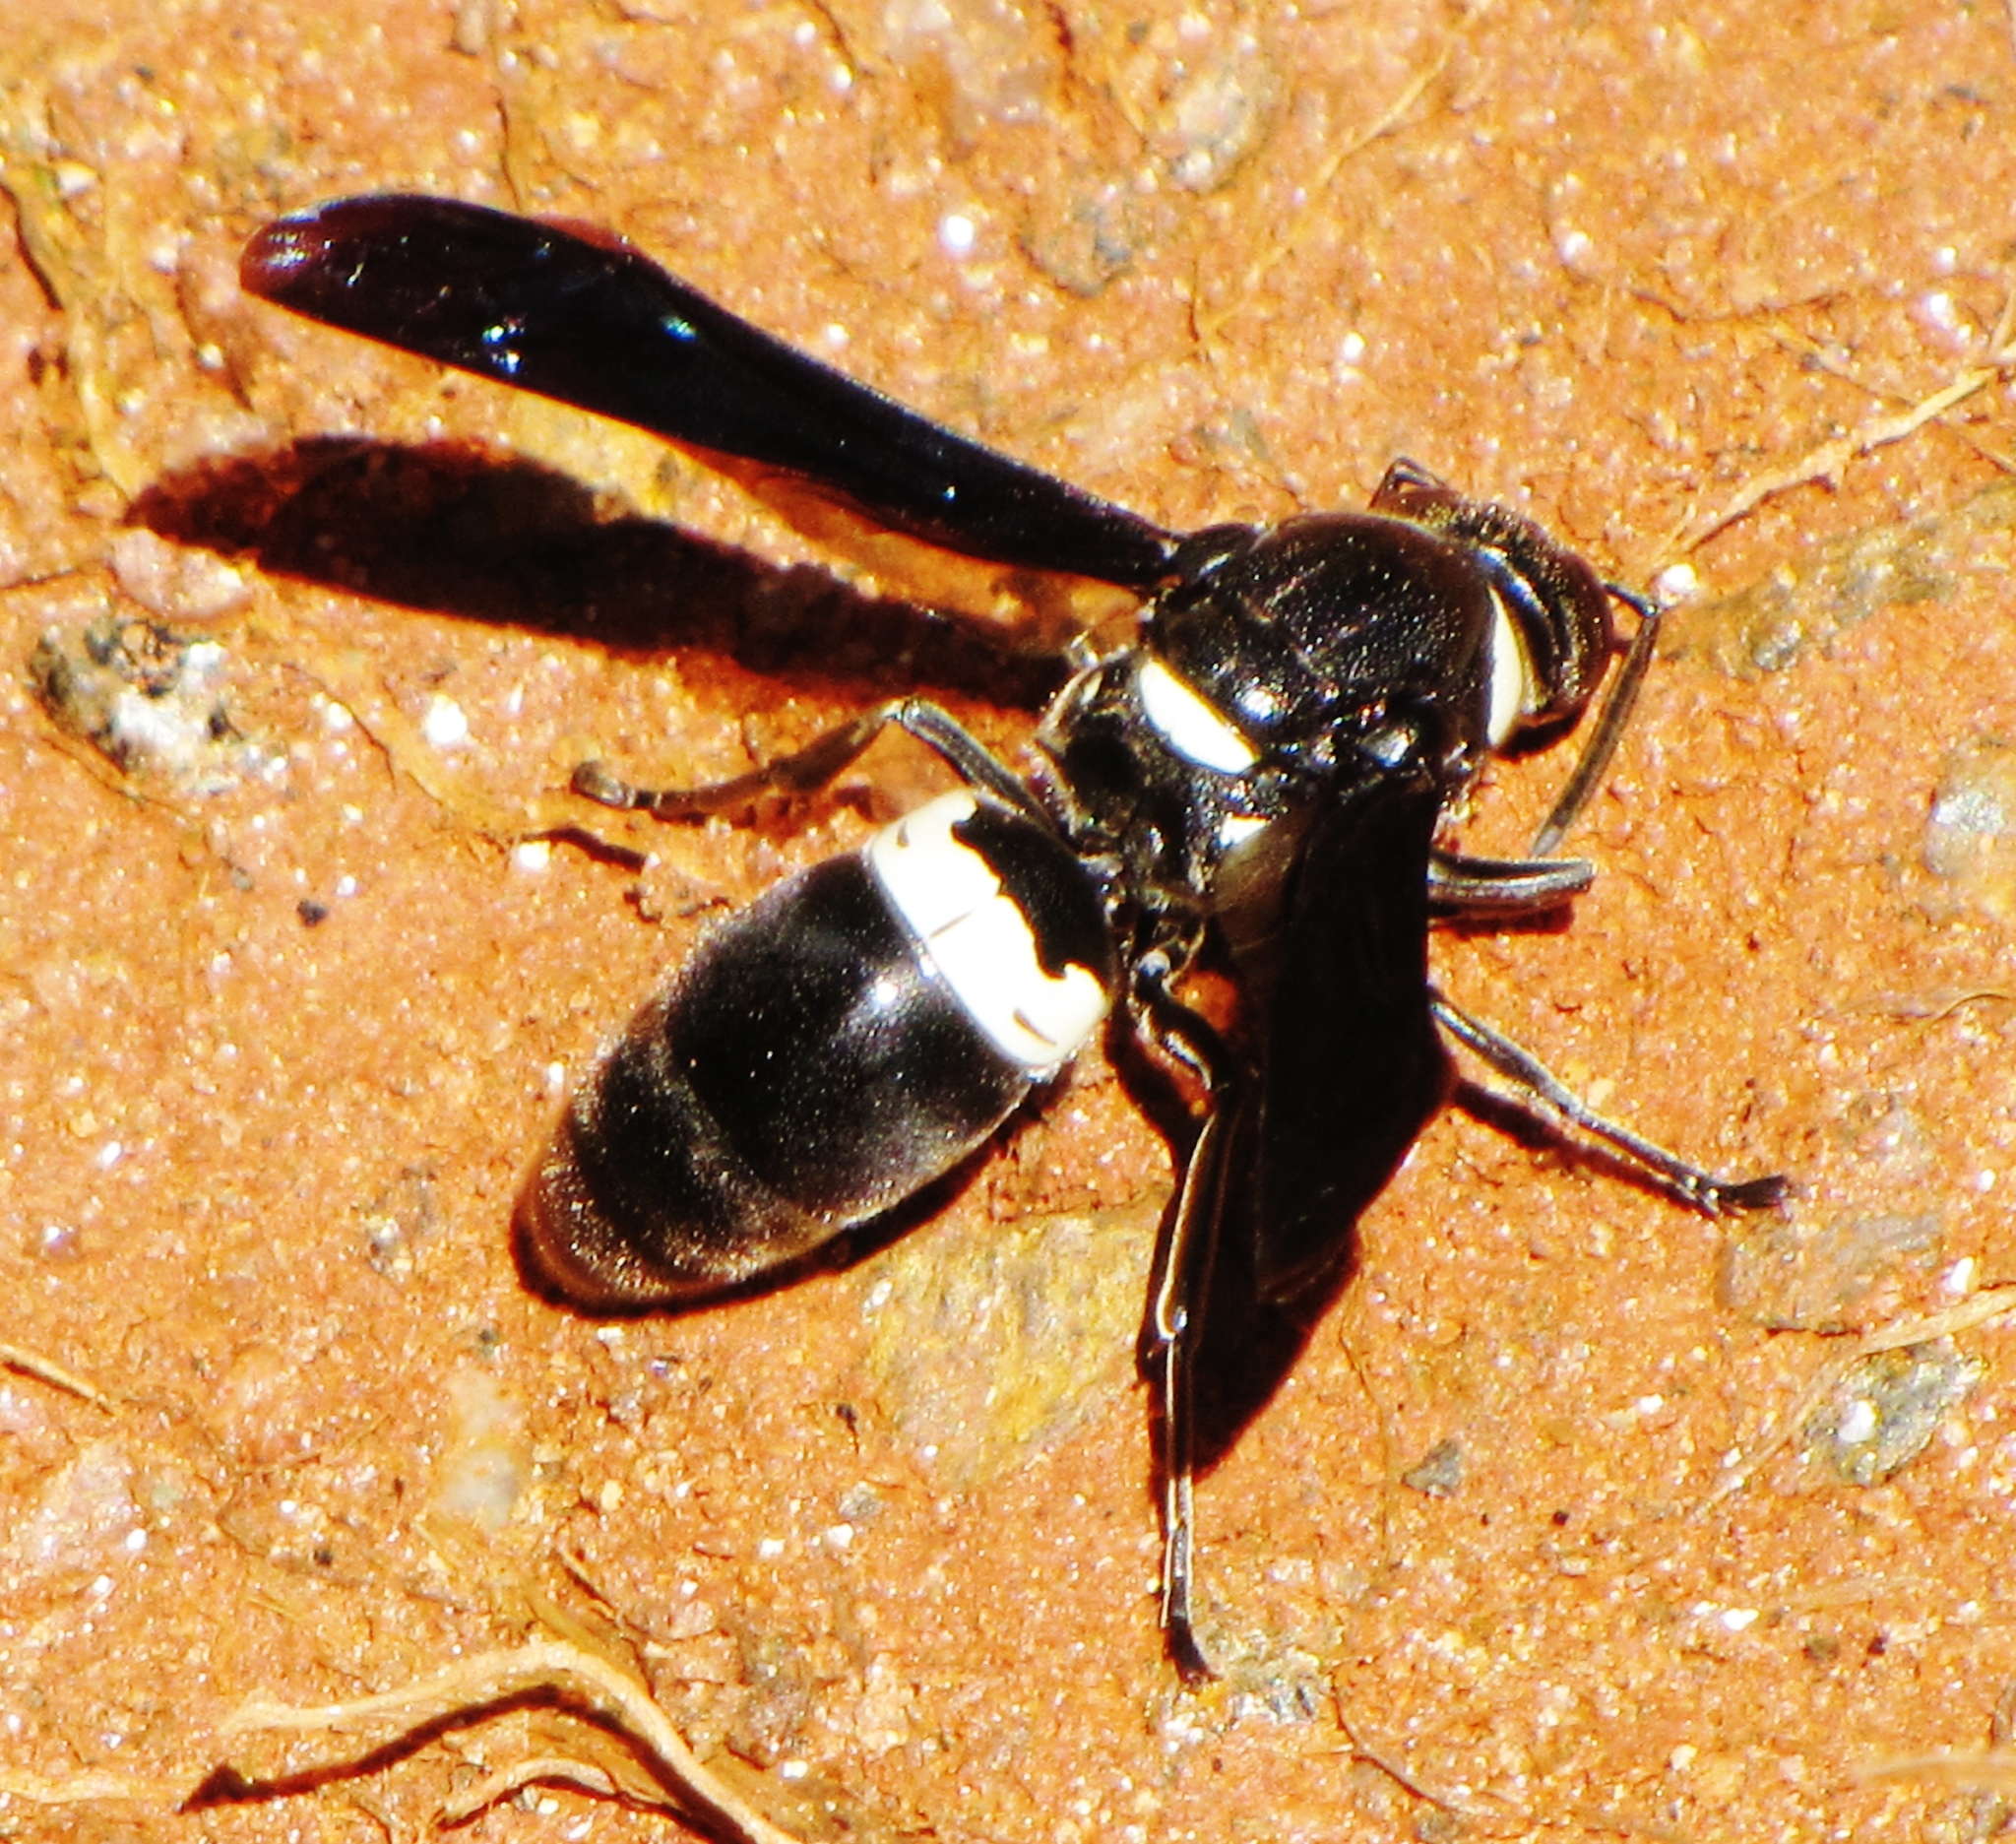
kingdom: Animalia
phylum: Arthropoda
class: Insecta
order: Hymenoptera
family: Eumenidae
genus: Monobia
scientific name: Monobia quadridens
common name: Four-toothed mason wasp
